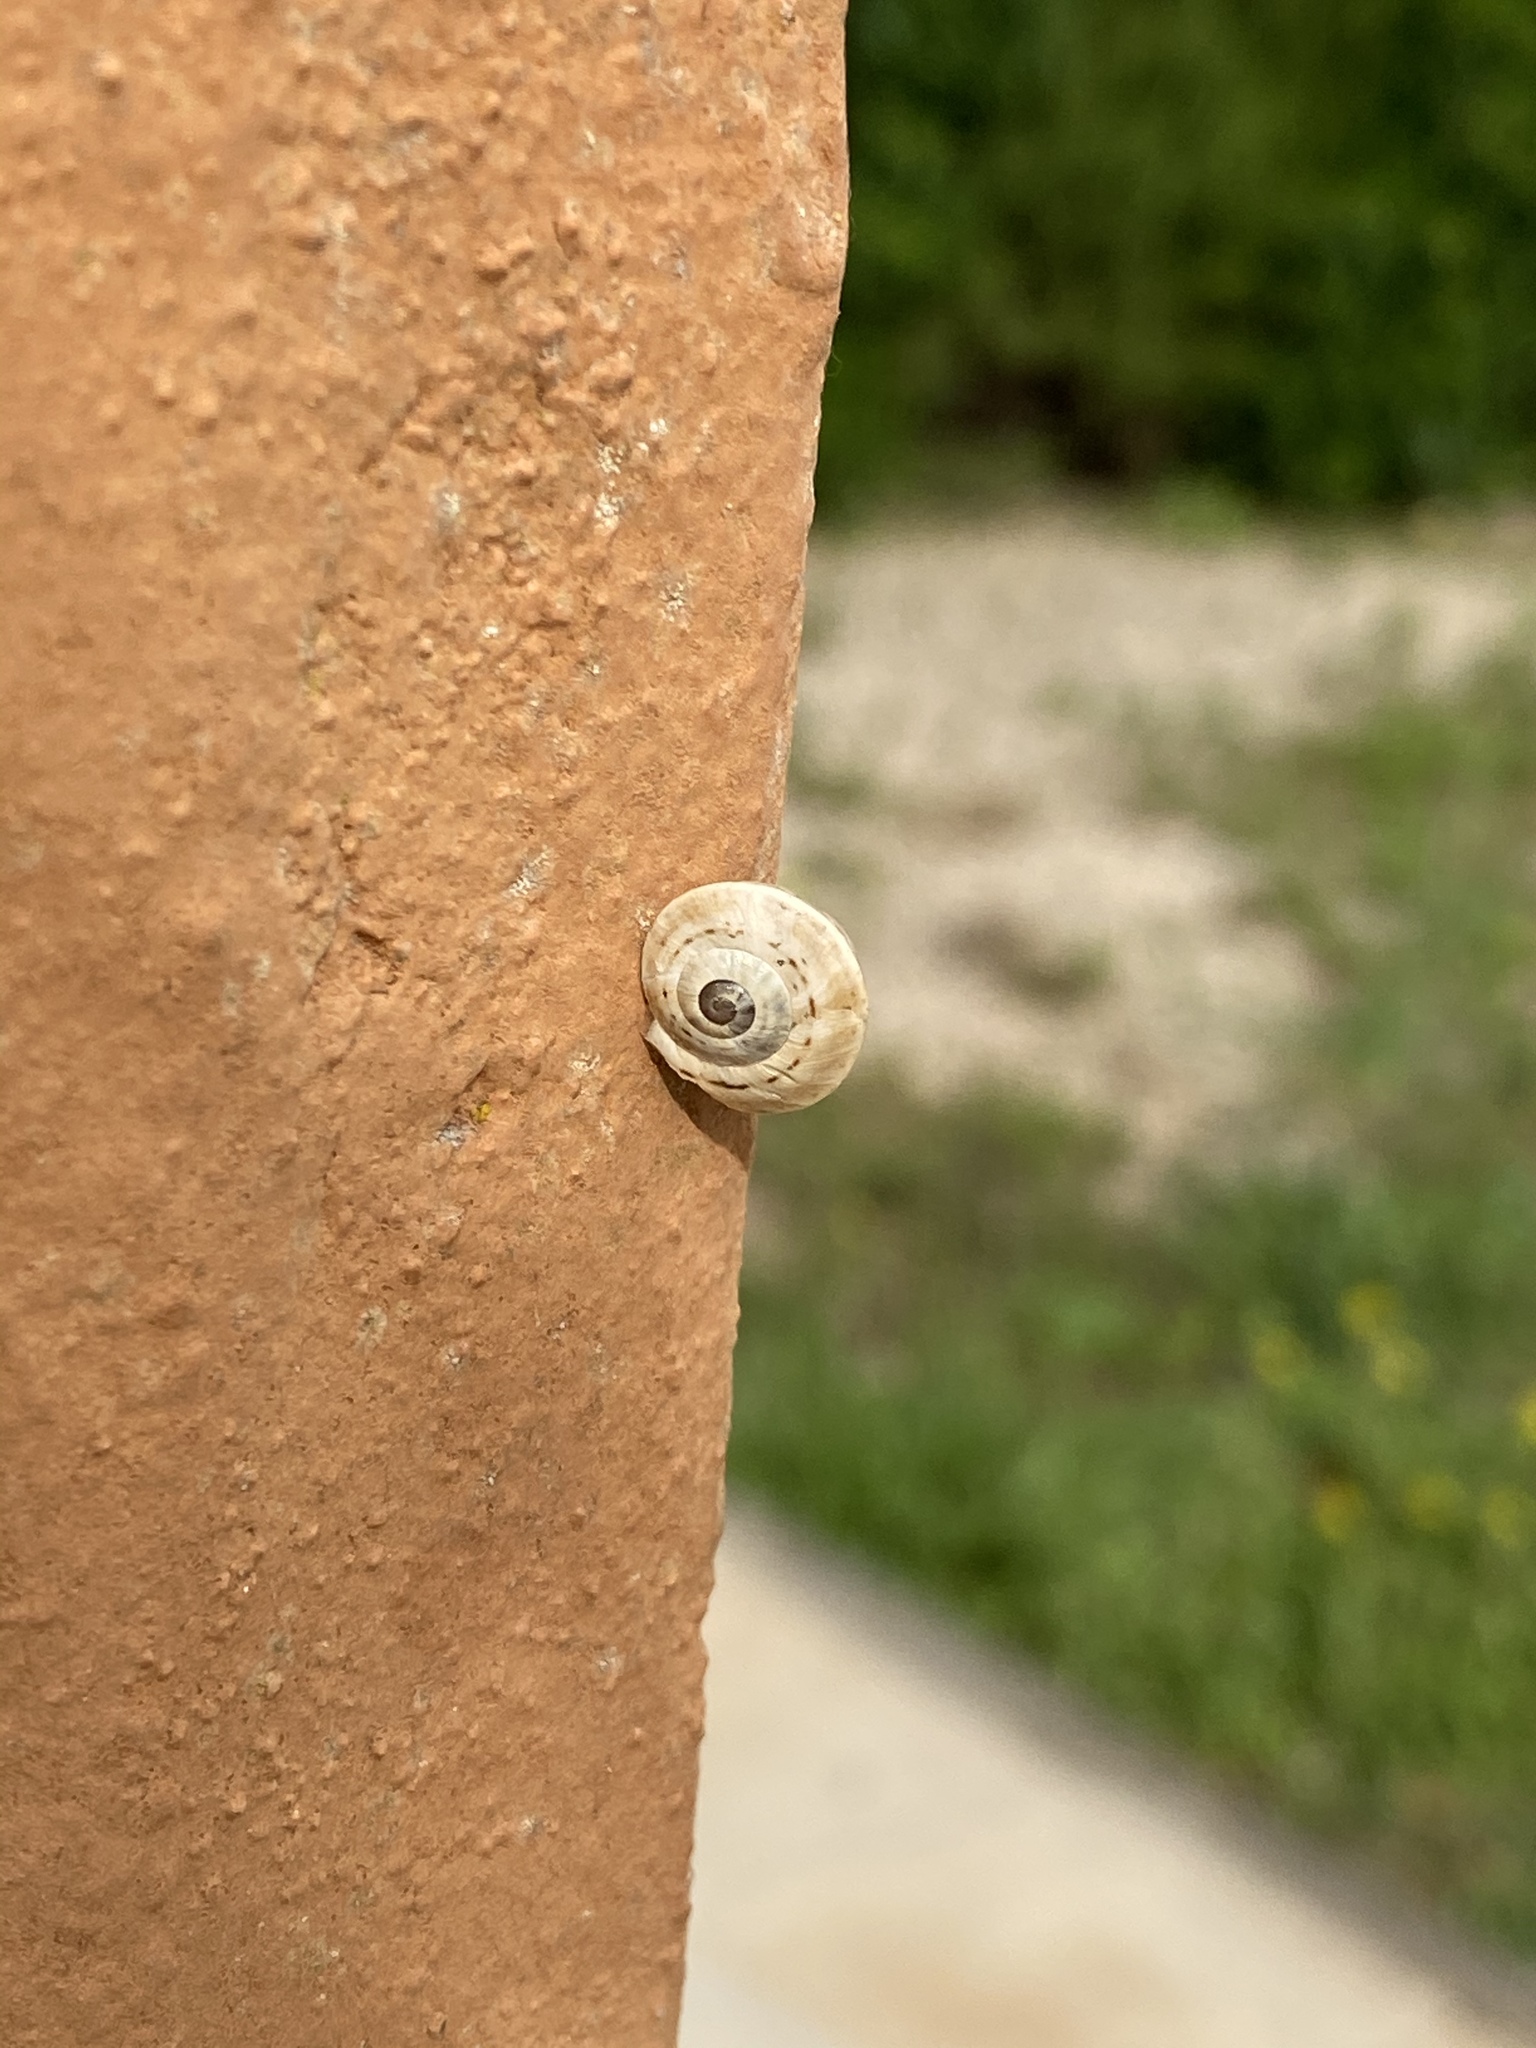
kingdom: Animalia
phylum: Mollusca
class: Gastropoda
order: Stylommatophora
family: Helicidae
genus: Theba
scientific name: Theba pisana
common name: White snail
